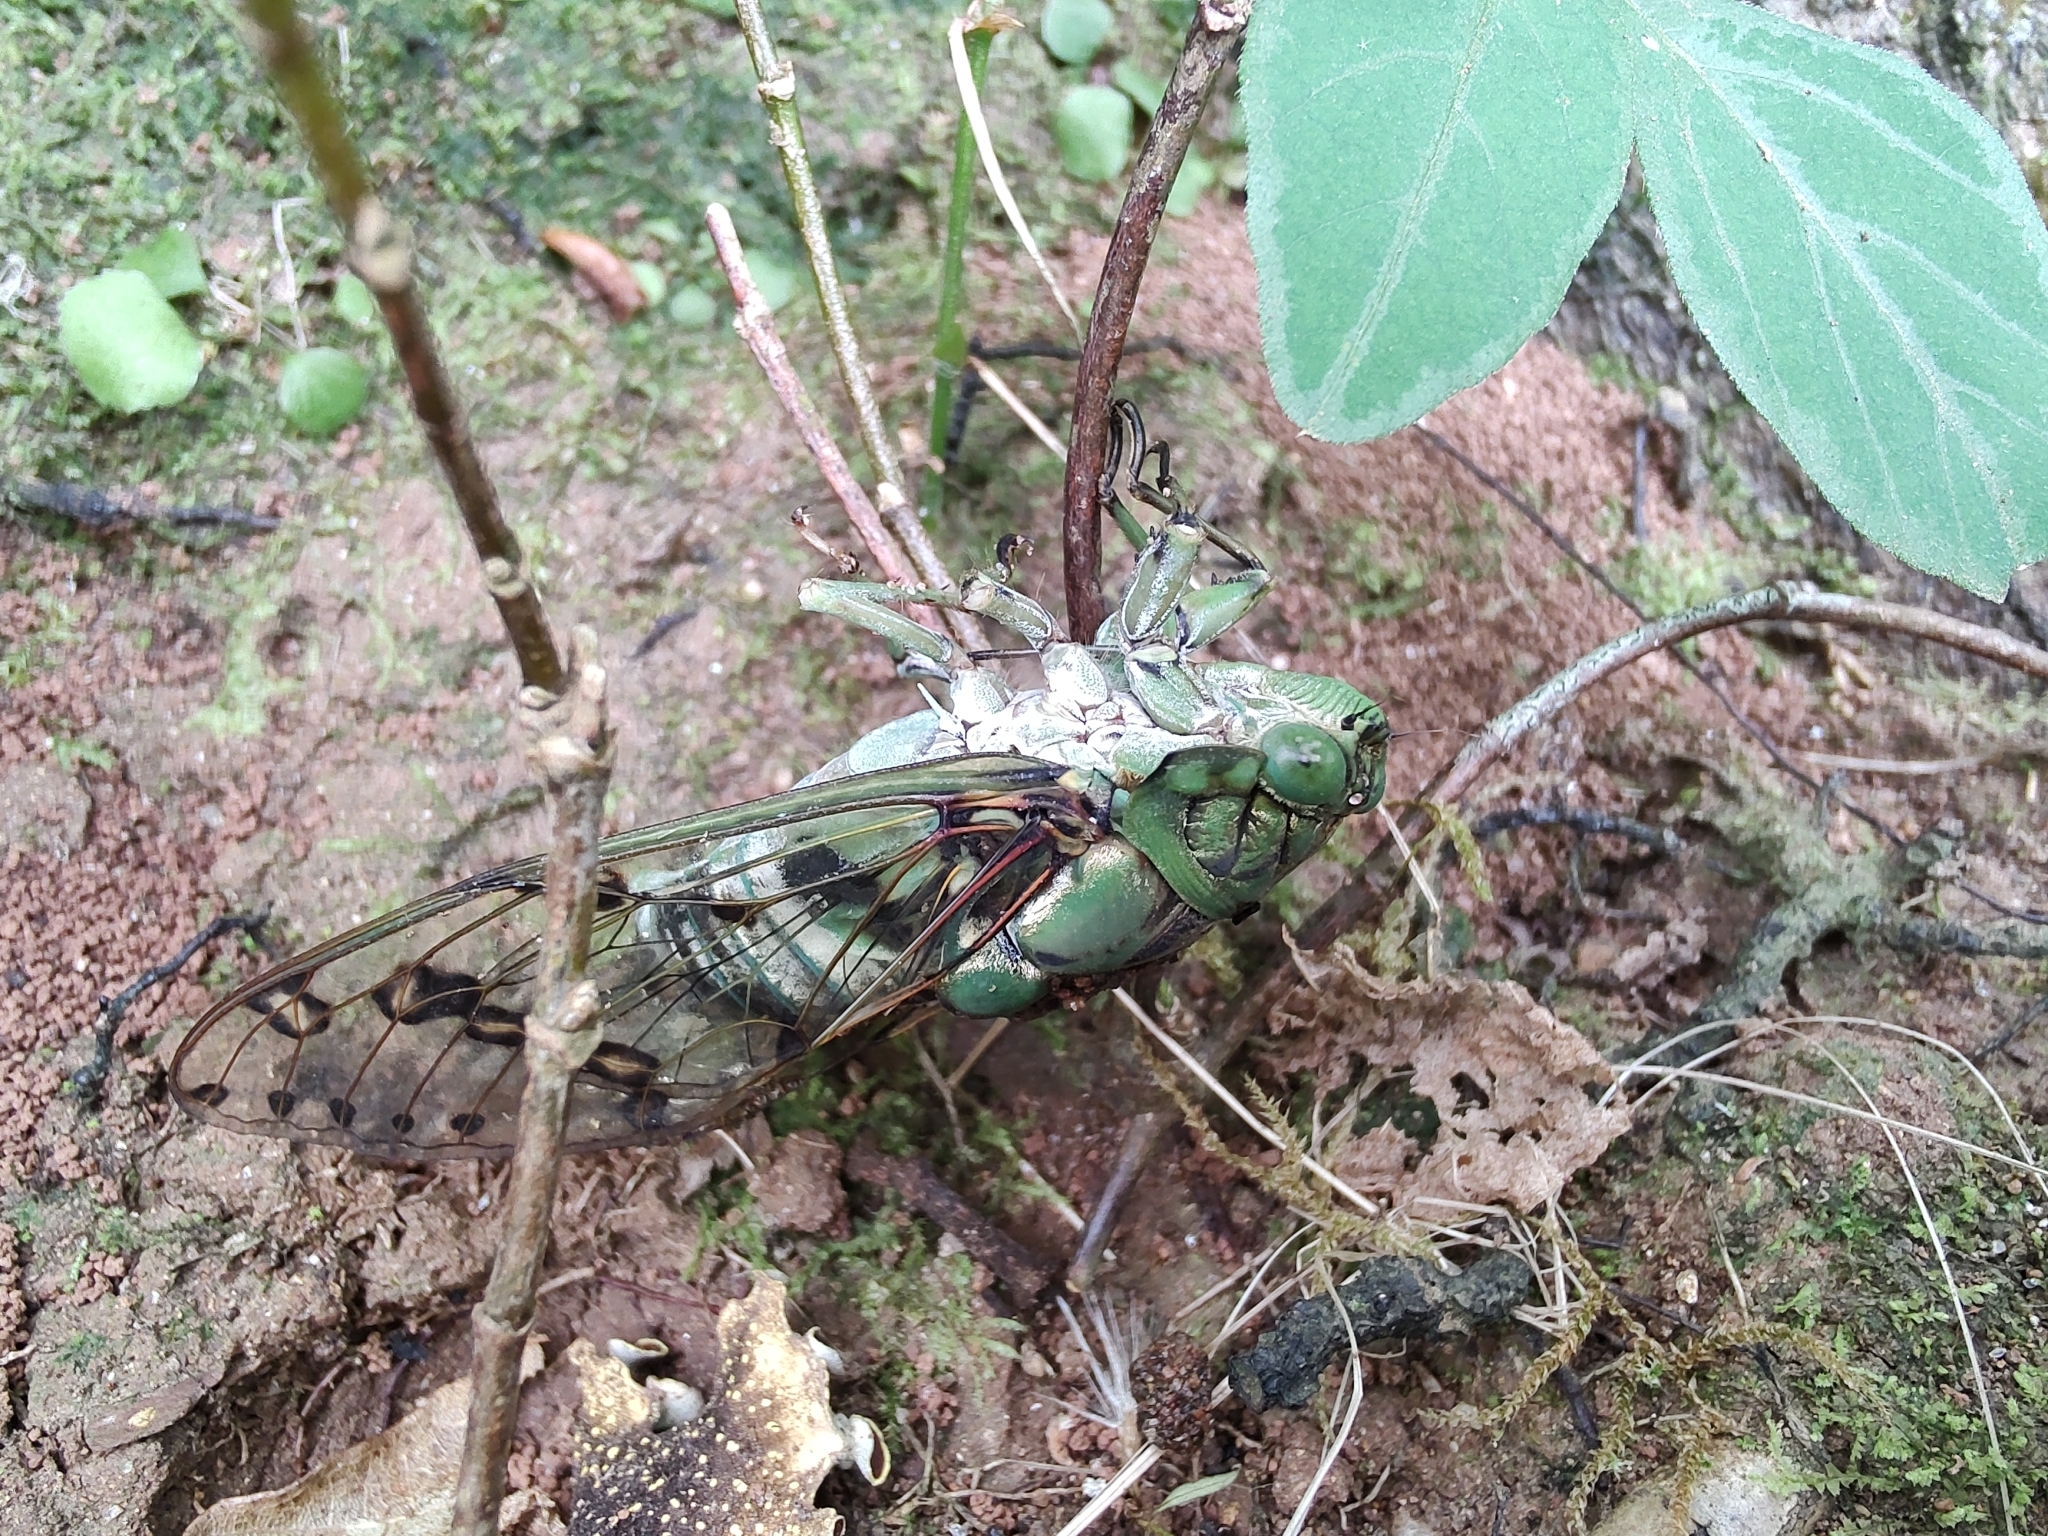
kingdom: Animalia
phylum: Arthropoda
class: Insecta
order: Hemiptera
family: Cicadidae
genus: Zammara
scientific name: Zammara tympanum
